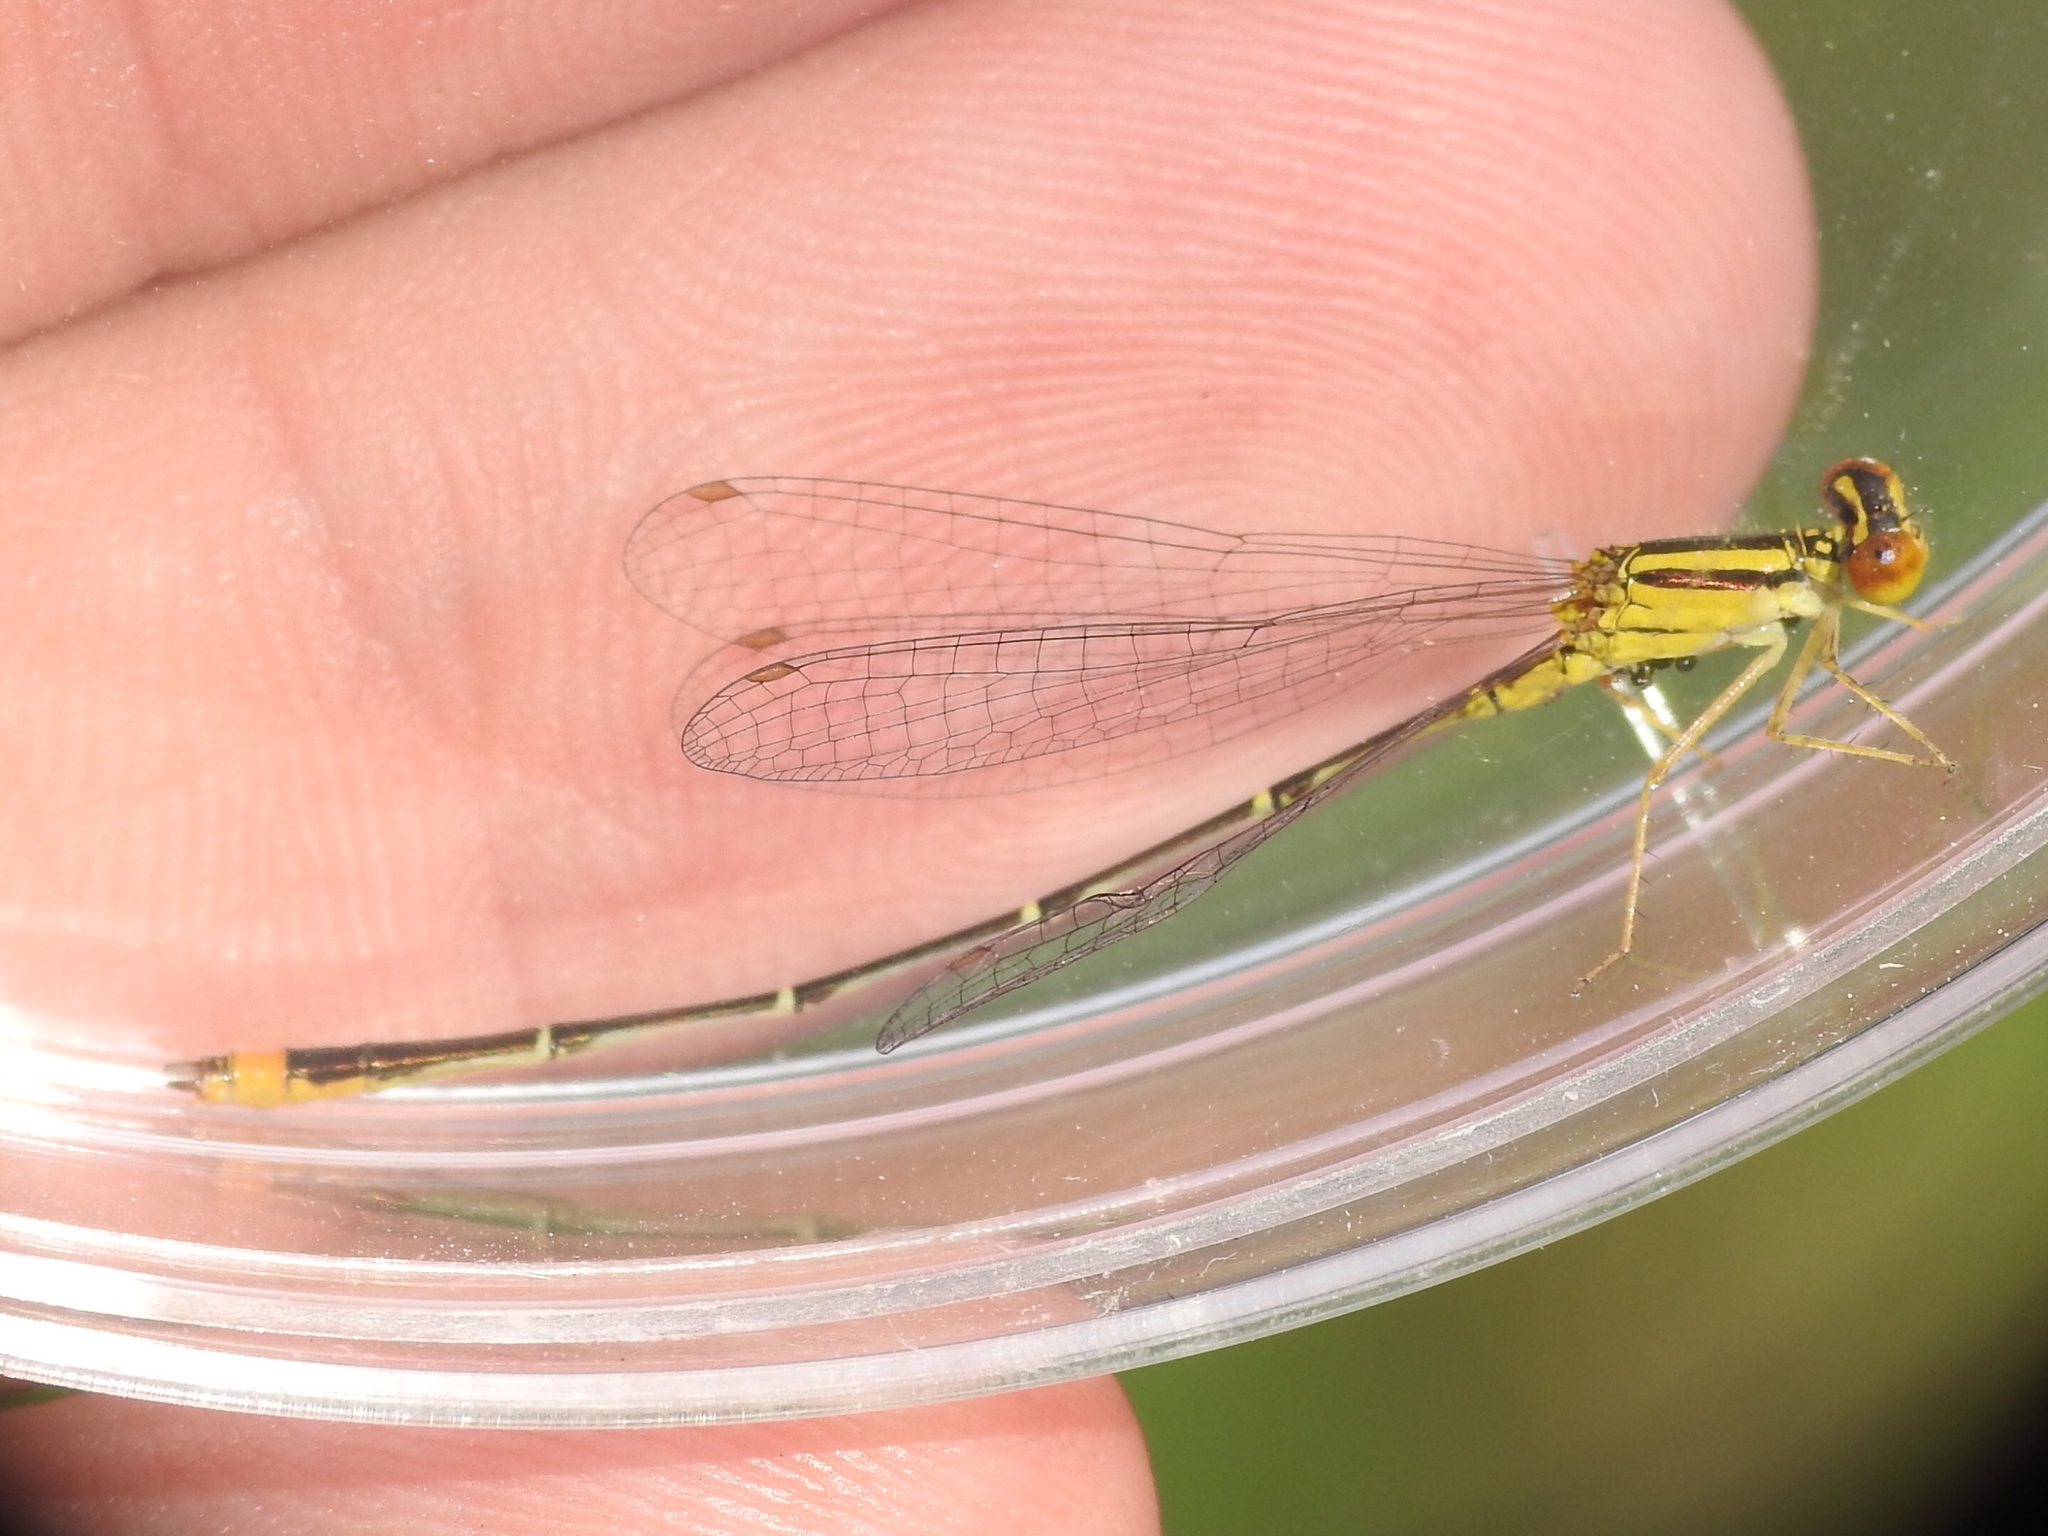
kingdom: Animalia
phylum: Arthropoda
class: Insecta
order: Odonata
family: Coenagrionidae
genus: Enallagma
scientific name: Enallagma signatum
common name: Orange bluet
